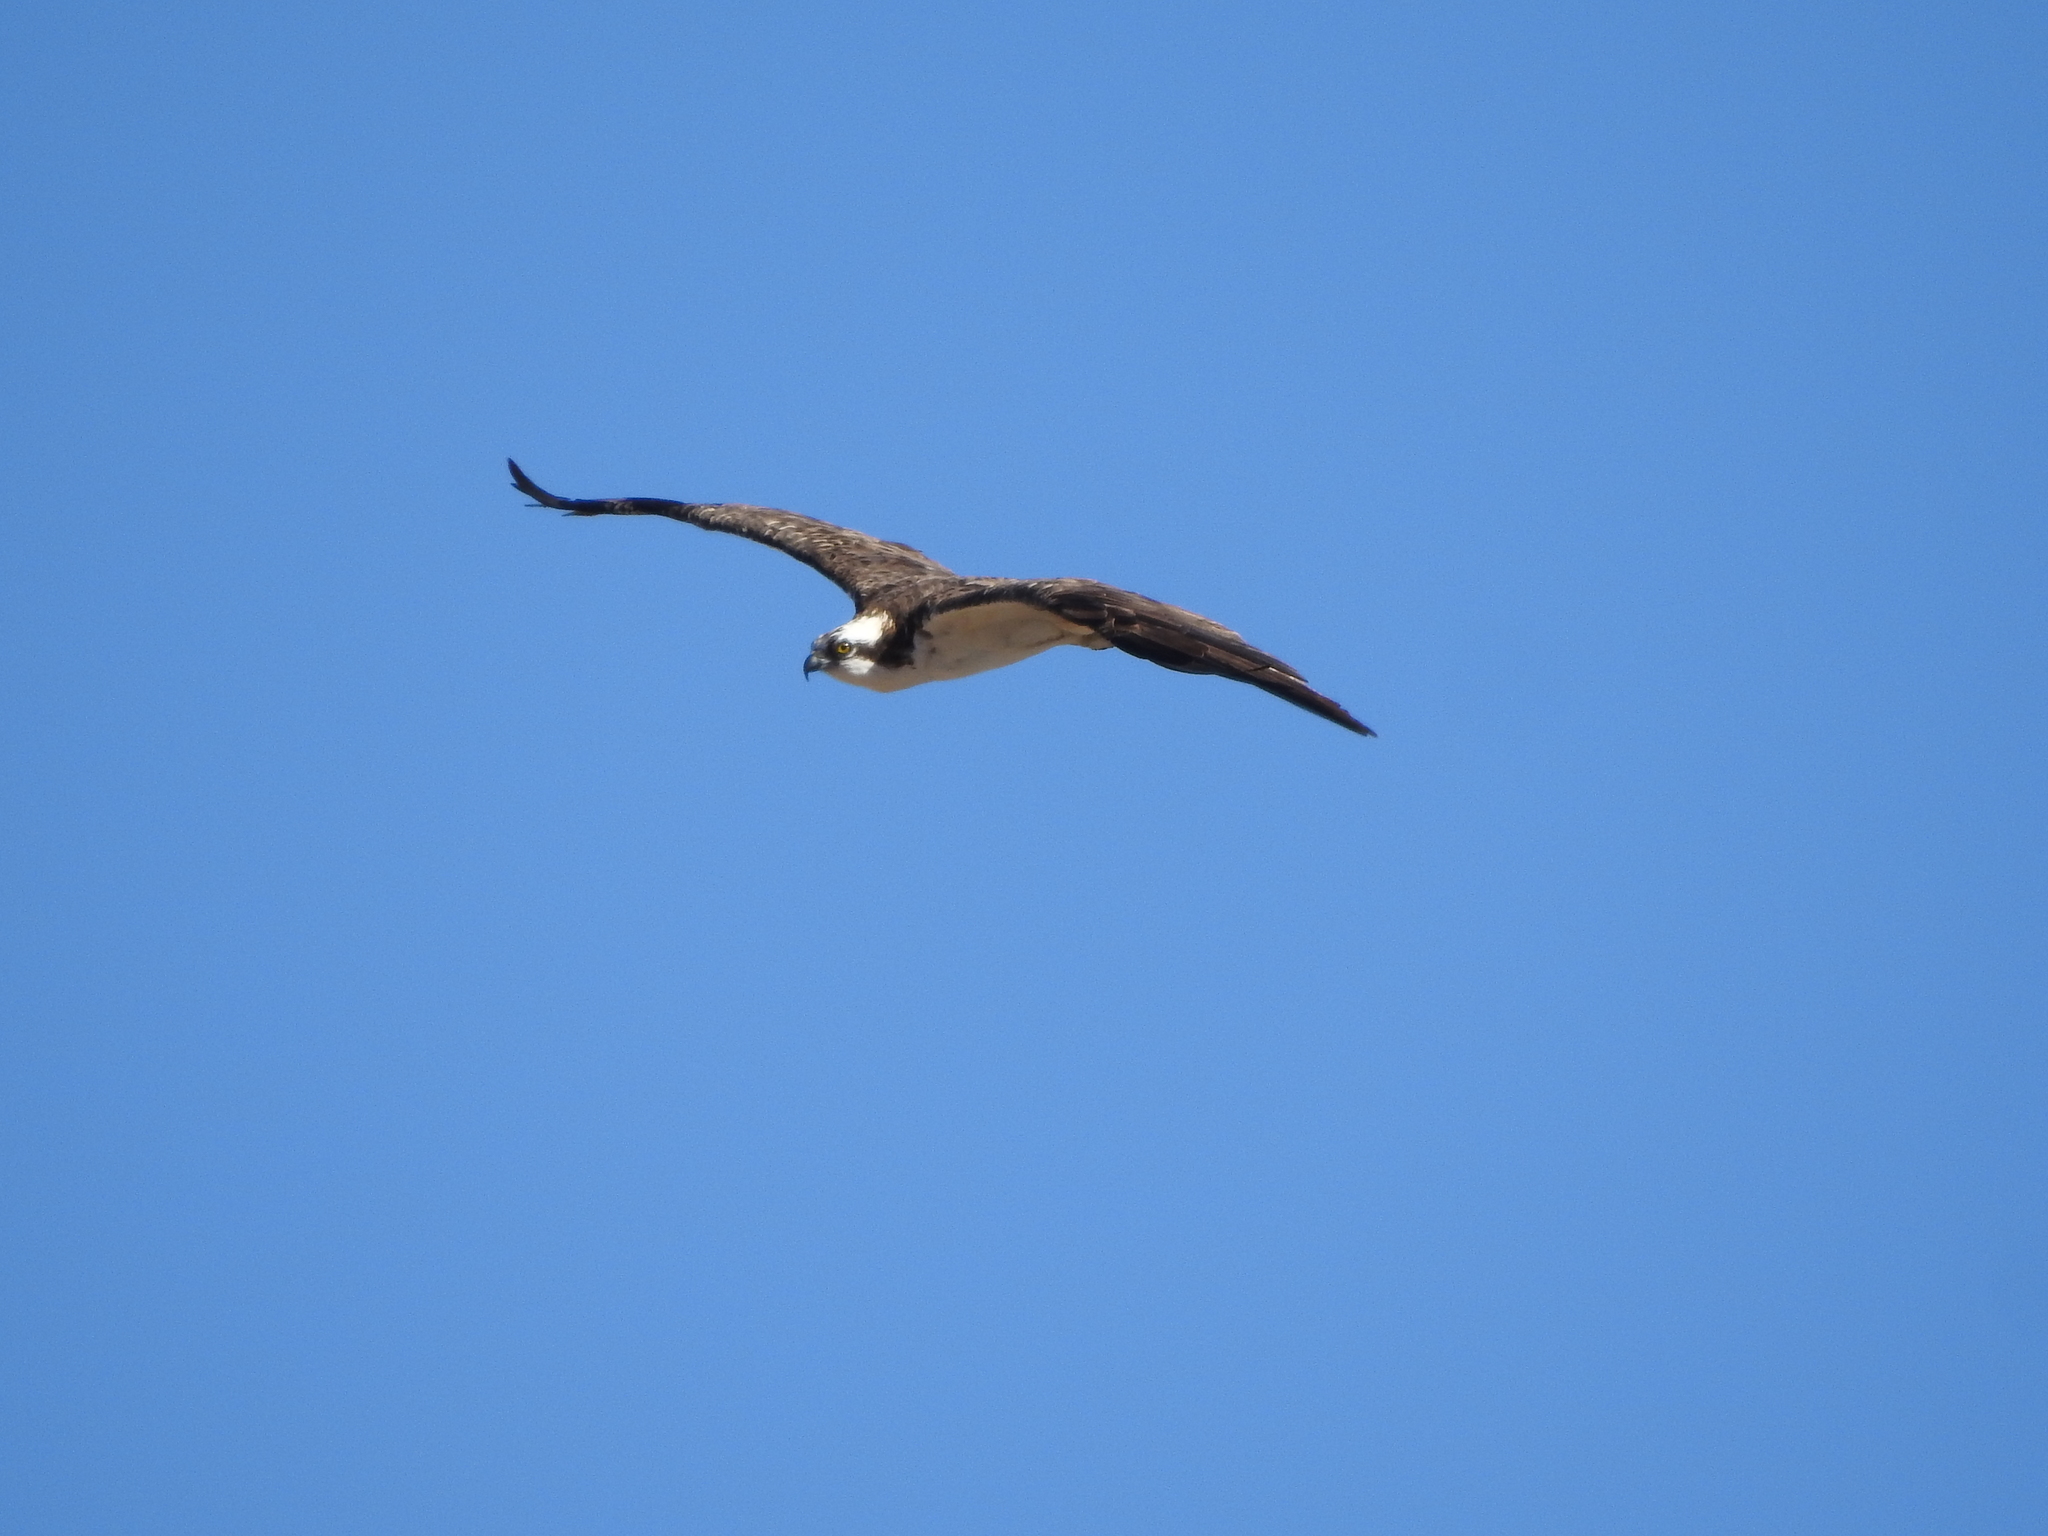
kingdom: Animalia
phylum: Chordata
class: Aves
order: Accipitriformes
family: Pandionidae
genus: Pandion
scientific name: Pandion haliaetus
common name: Osprey
